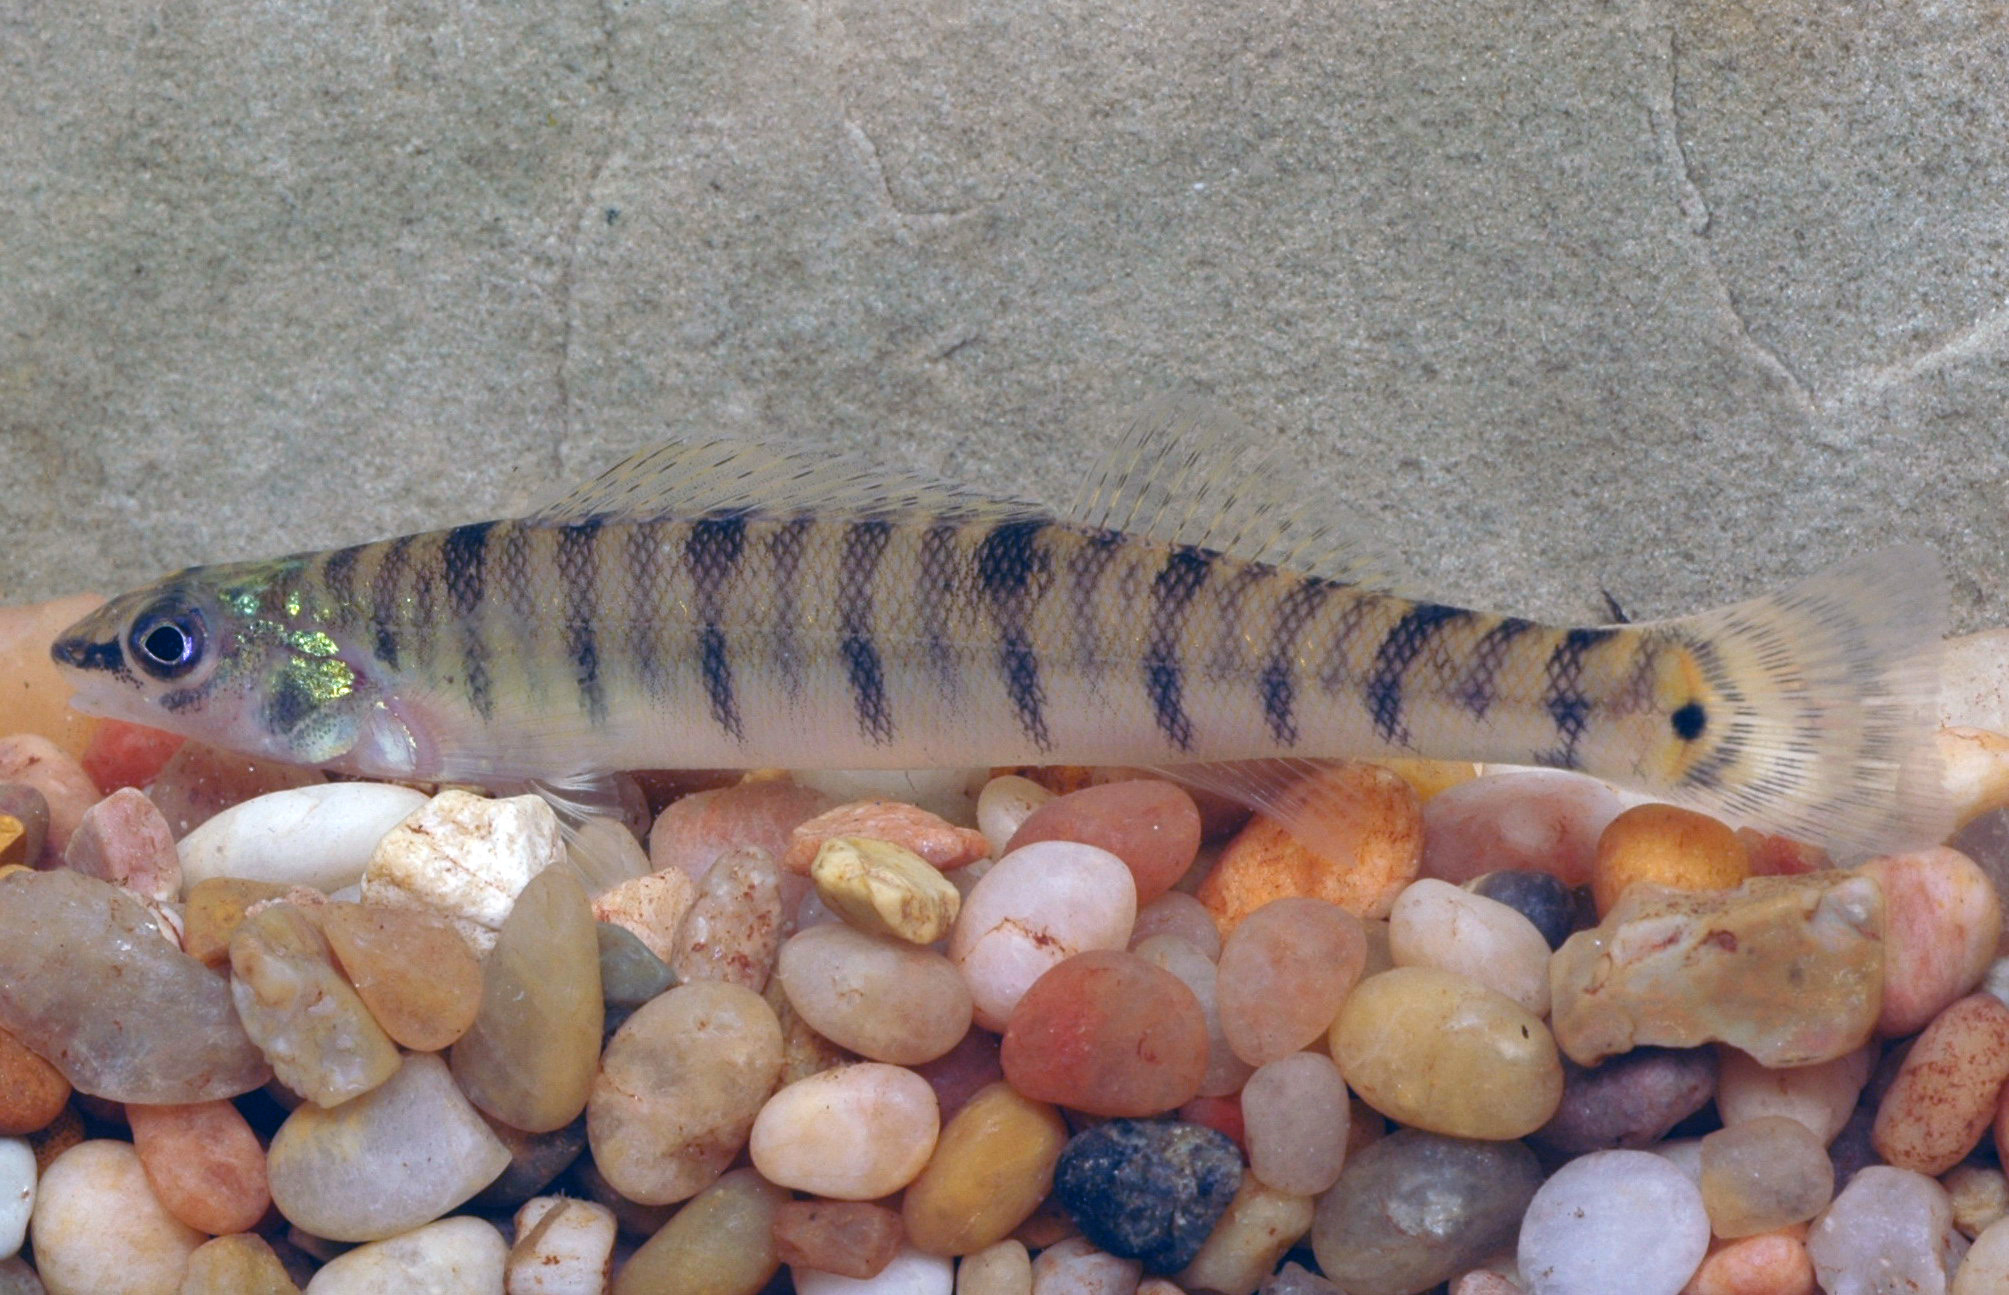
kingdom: Animalia
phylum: Chordata
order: Perciformes
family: Percidae
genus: Percina
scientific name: Percina macrolepida
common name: Bigscale logperch
